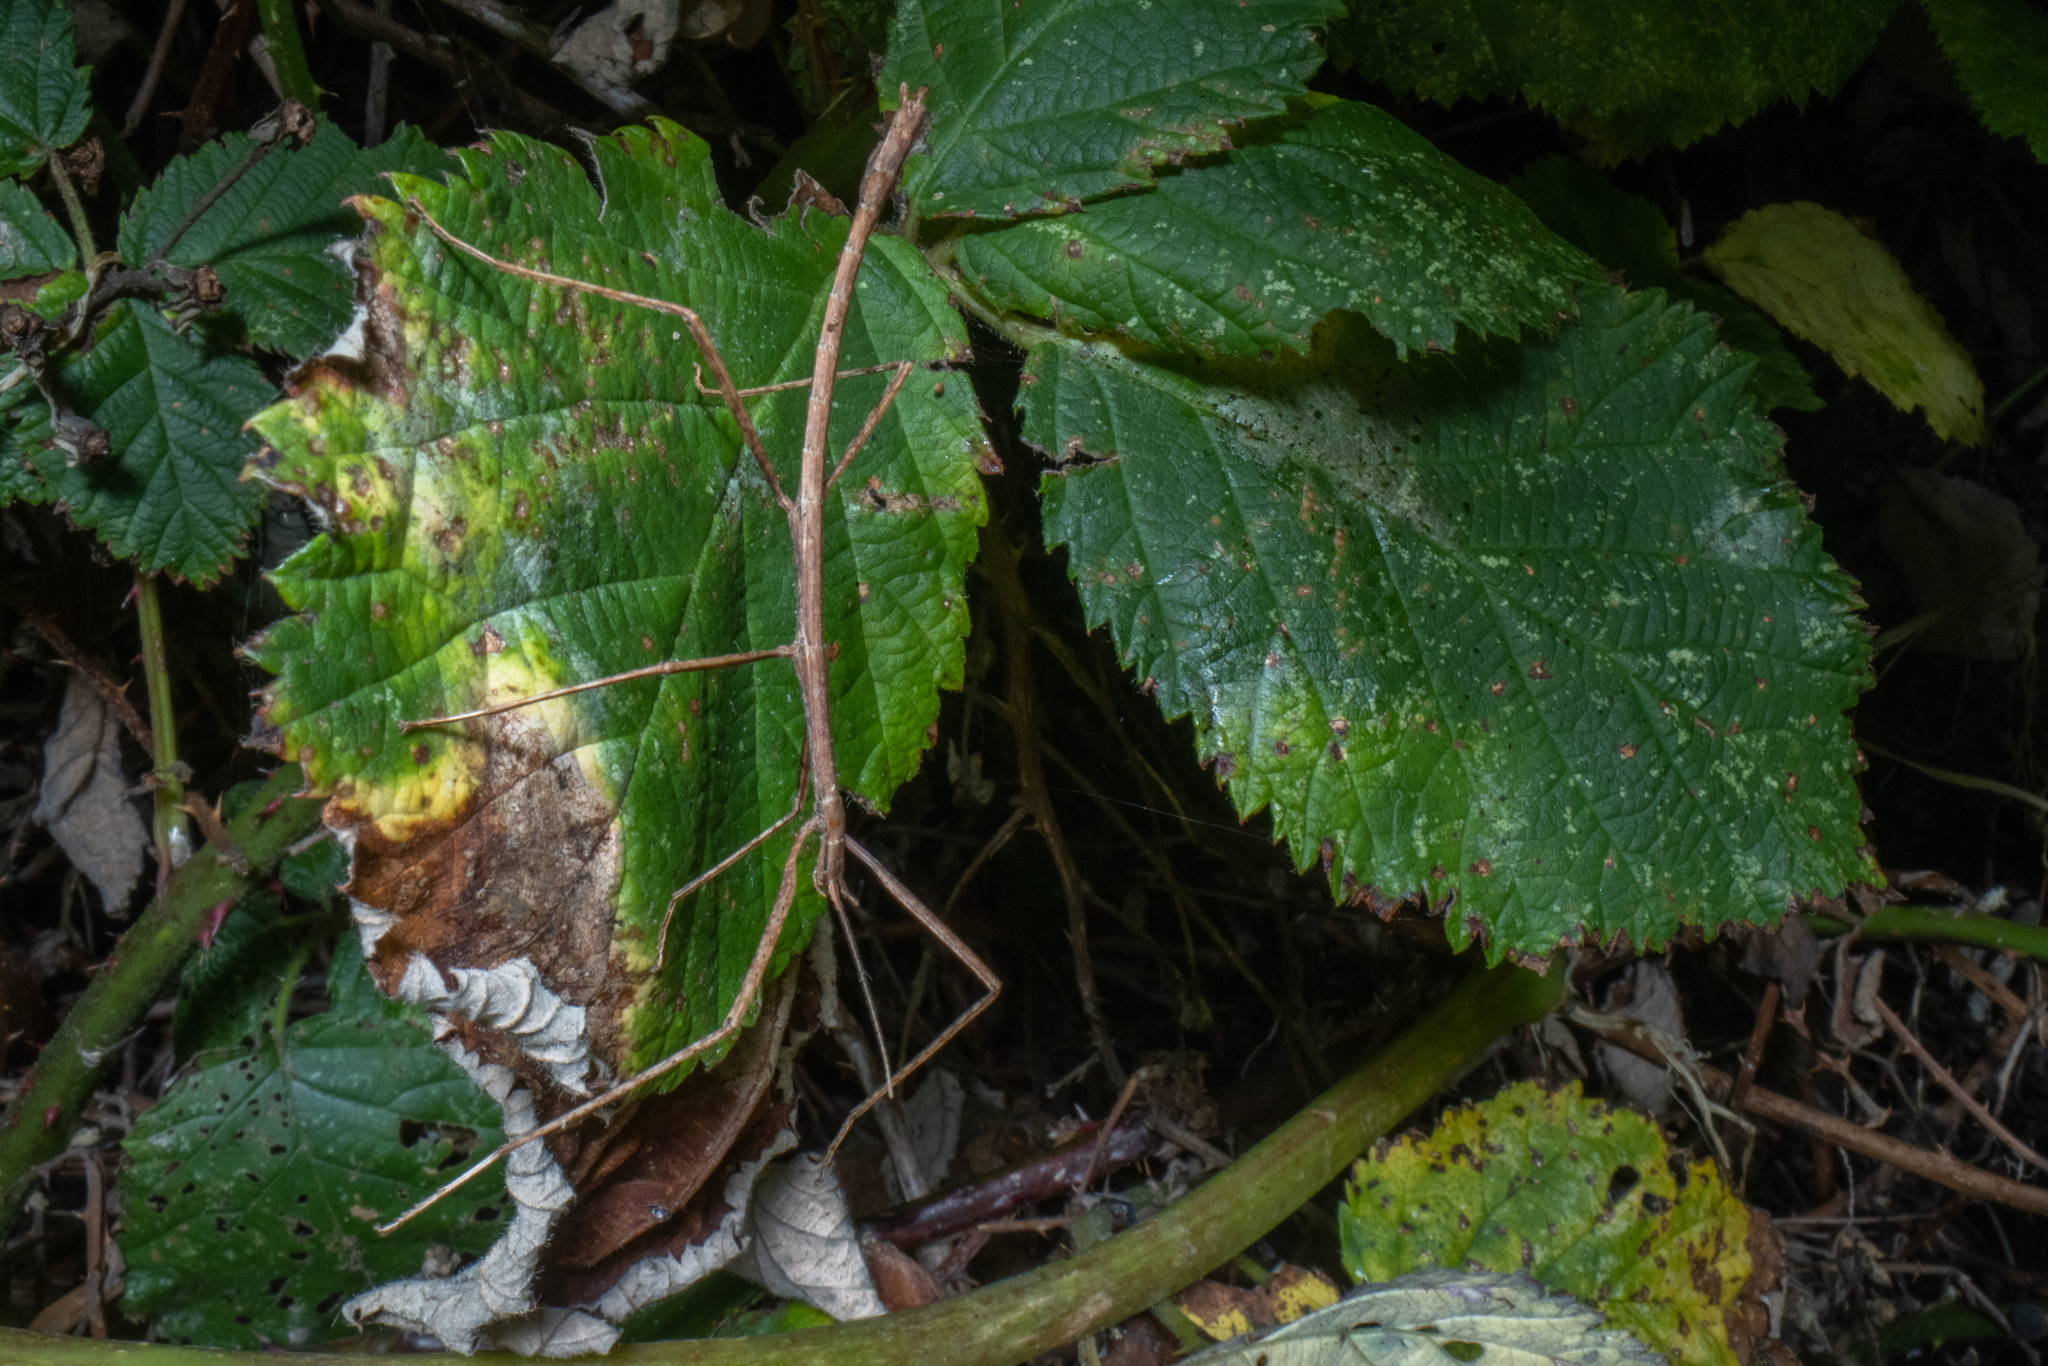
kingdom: Animalia
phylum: Arthropoda
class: Insecta
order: Phasmida
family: Phasmatidae
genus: Tectarchus
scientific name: Tectarchus huttoni
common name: The common ridge-backed stick insect
